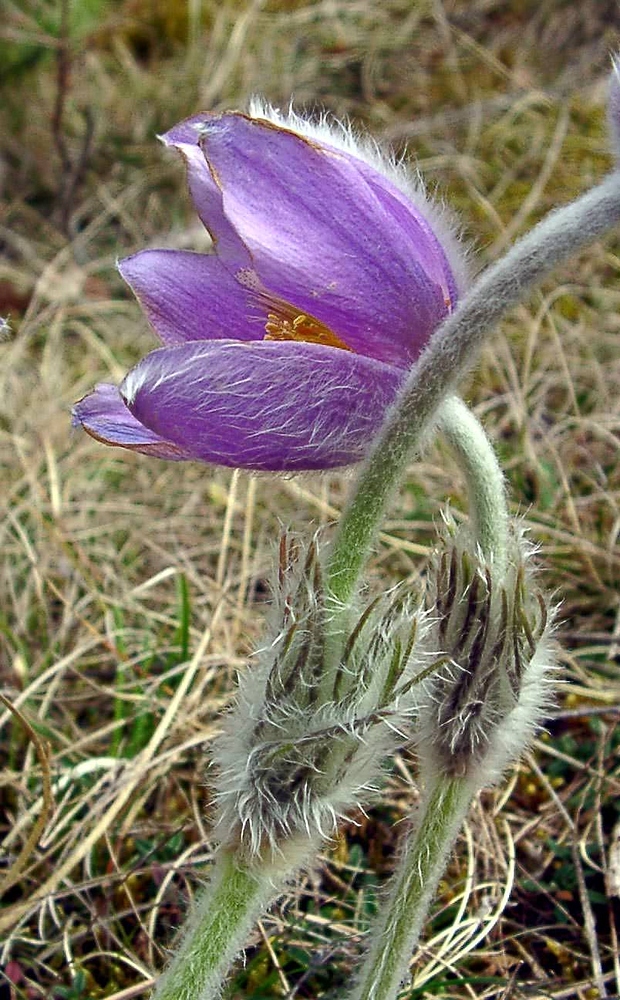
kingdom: Plantae
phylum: Tracheophyta
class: Magnoliopsida
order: Ranunculales
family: Ranunculaceae
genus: Pulsatilla
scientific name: Pulsatilla vulgaris
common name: Pasqueflower
